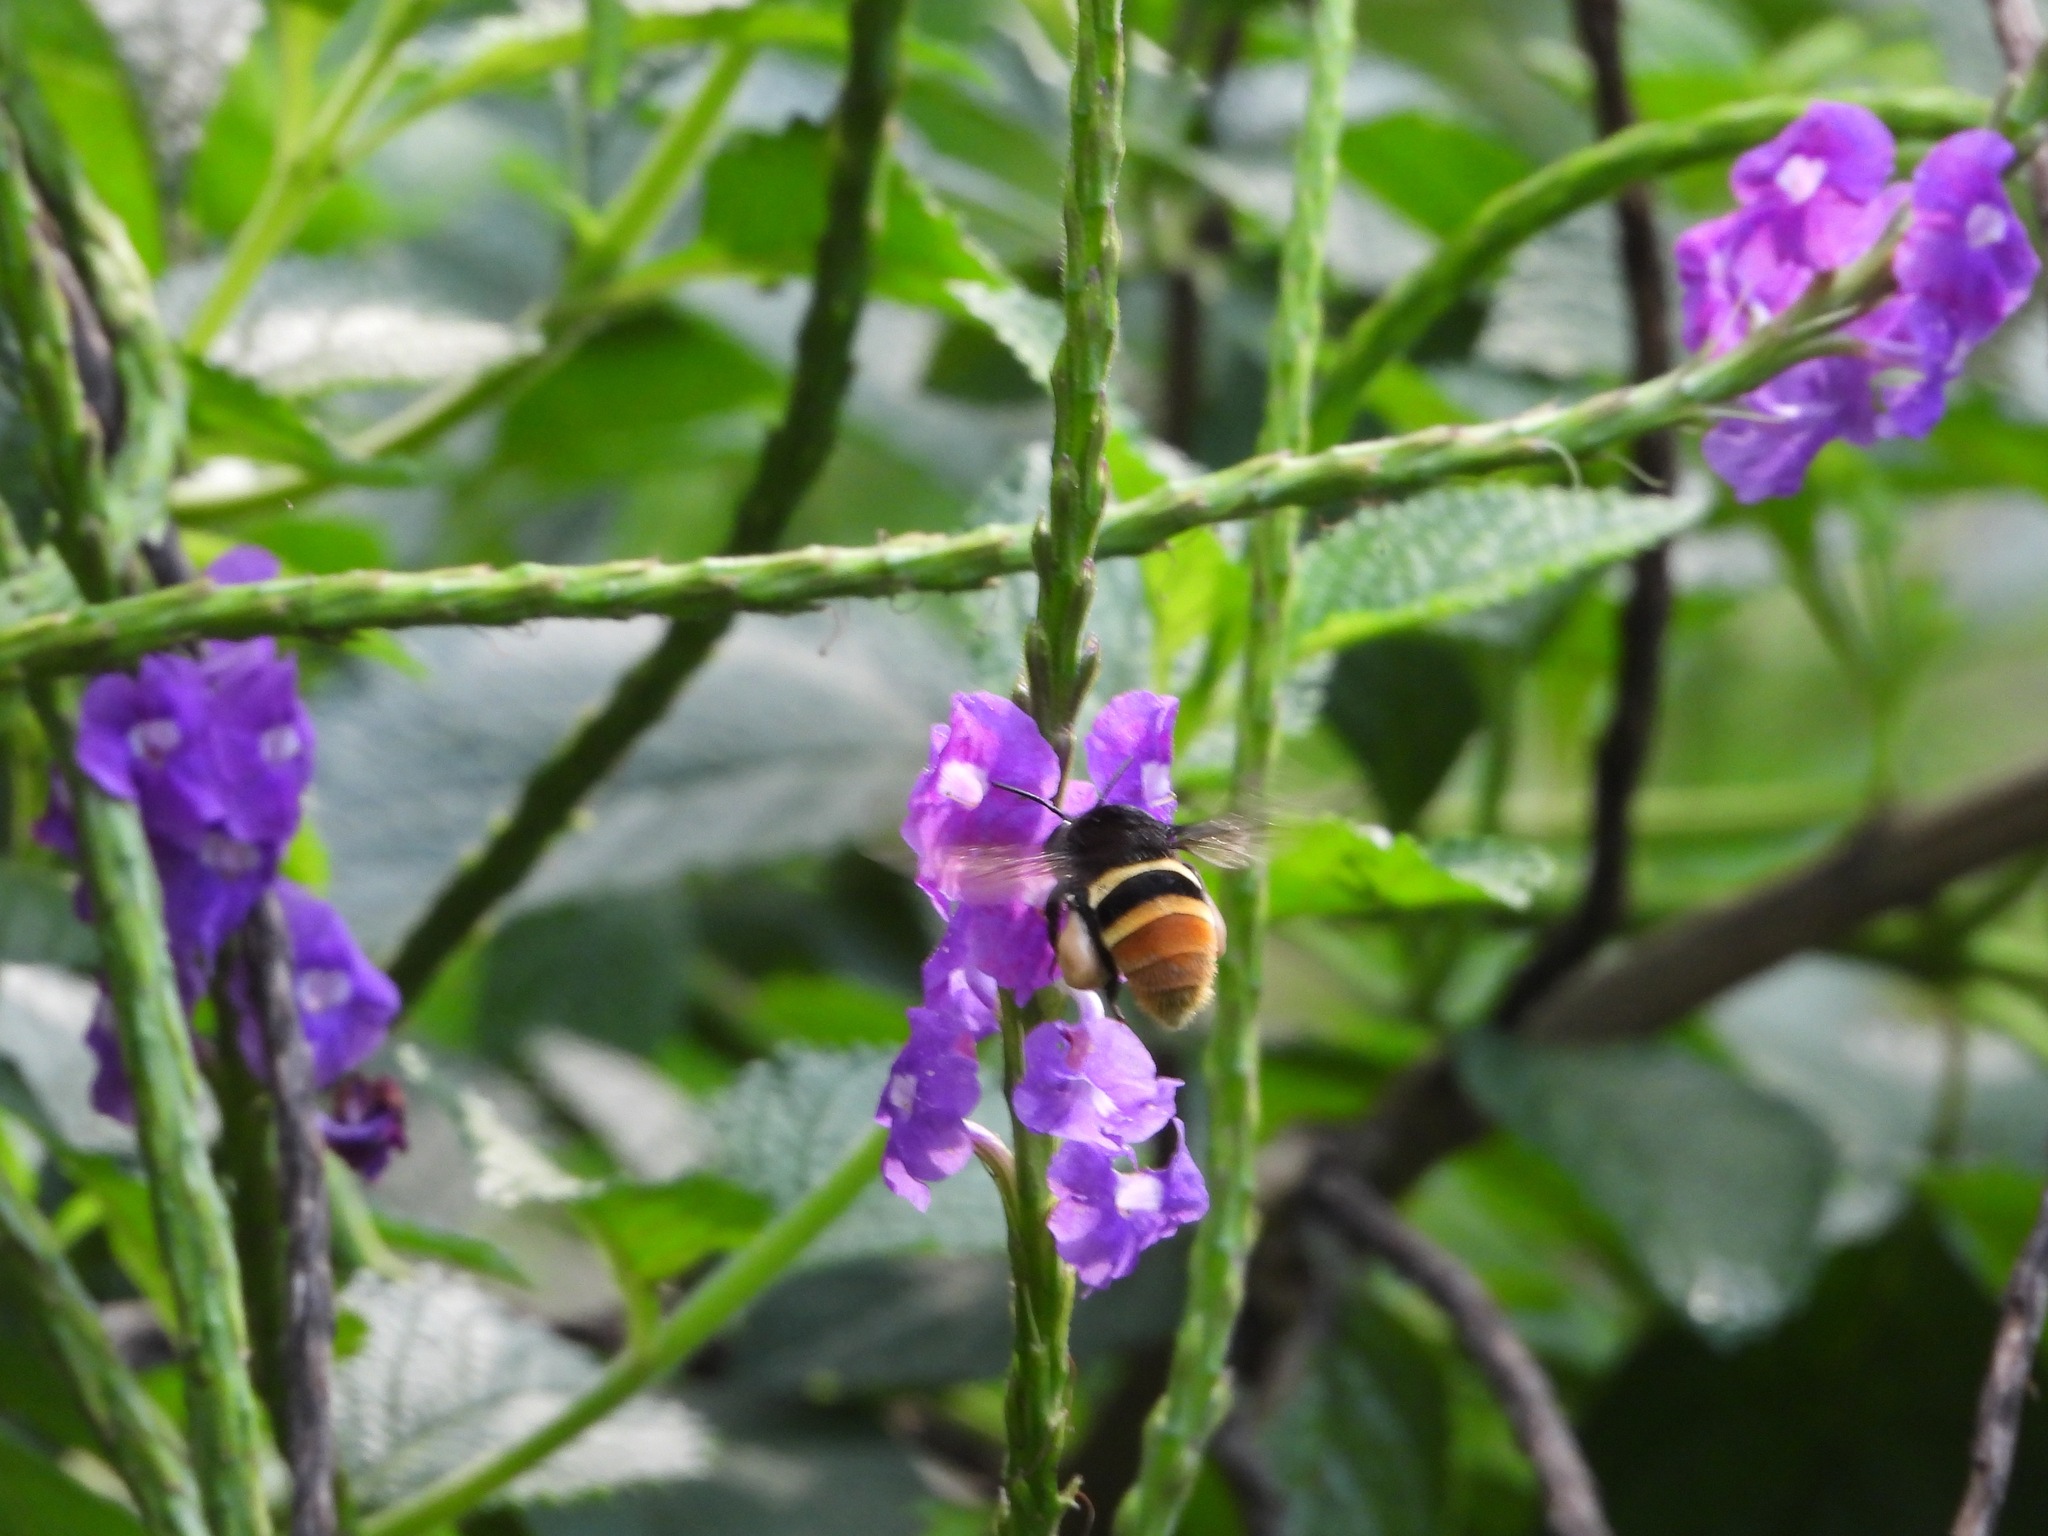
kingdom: Animalia
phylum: Arthropoda
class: Insecta
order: Hymenoptera
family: Apidae
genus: Eulaema
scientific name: Eulaema cingulata
